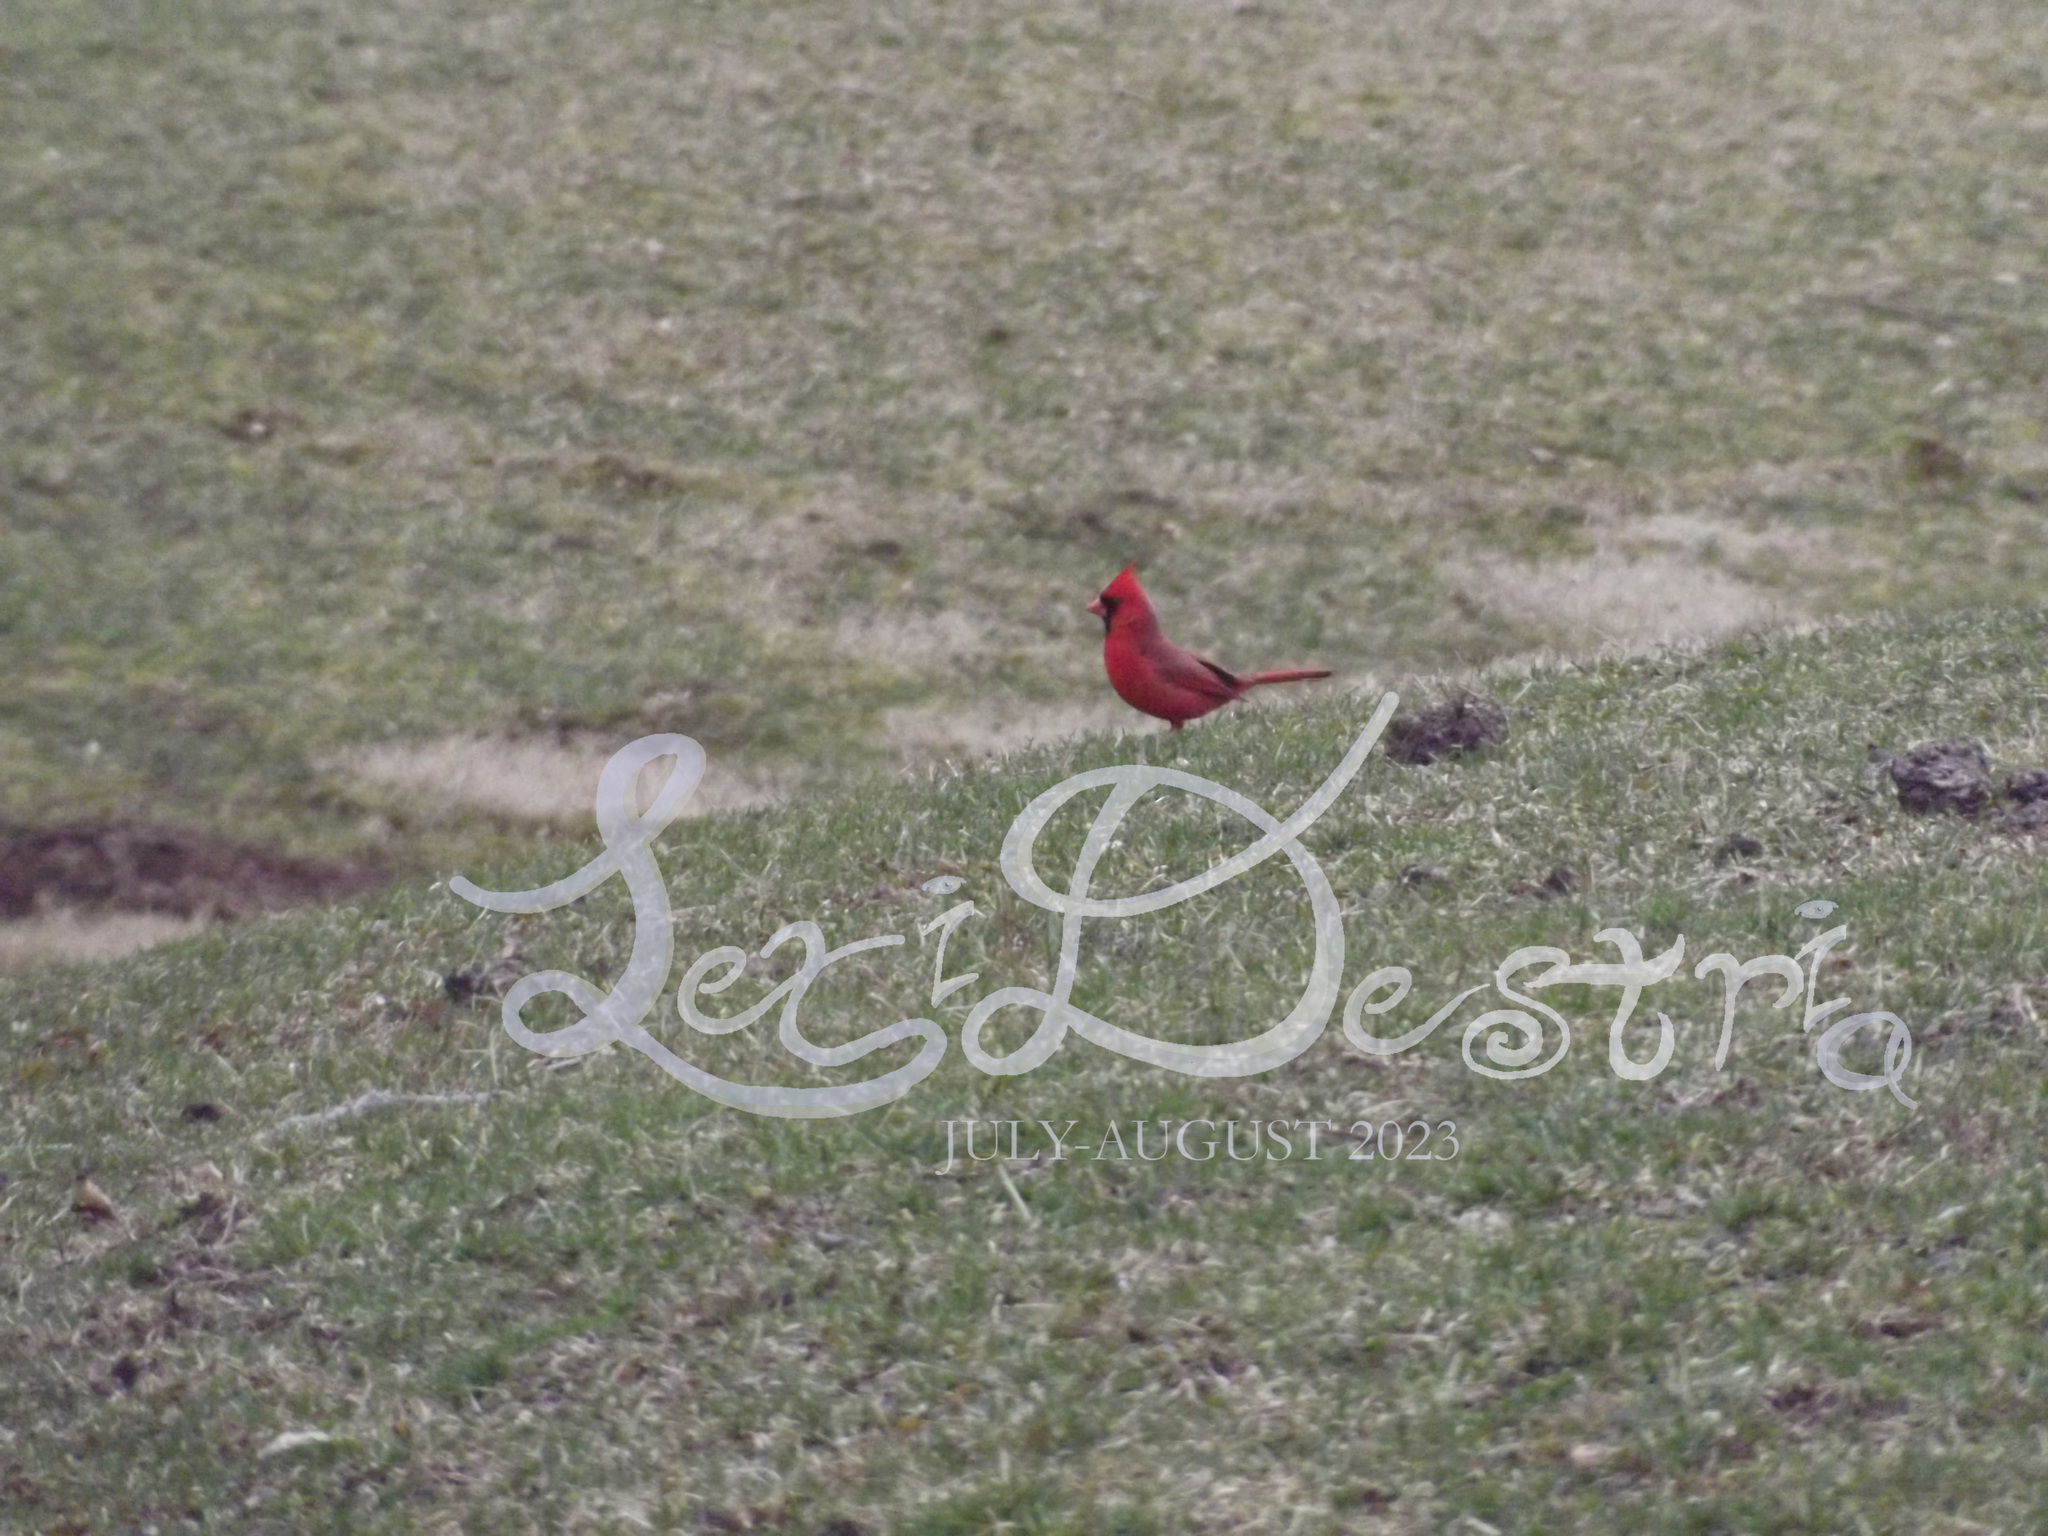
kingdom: Animalia
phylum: Chordata
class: Aves
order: Passeriformes
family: Cardinalidae
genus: Cardinalis
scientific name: Cardinalis cardinalis
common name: Northern cardinal
